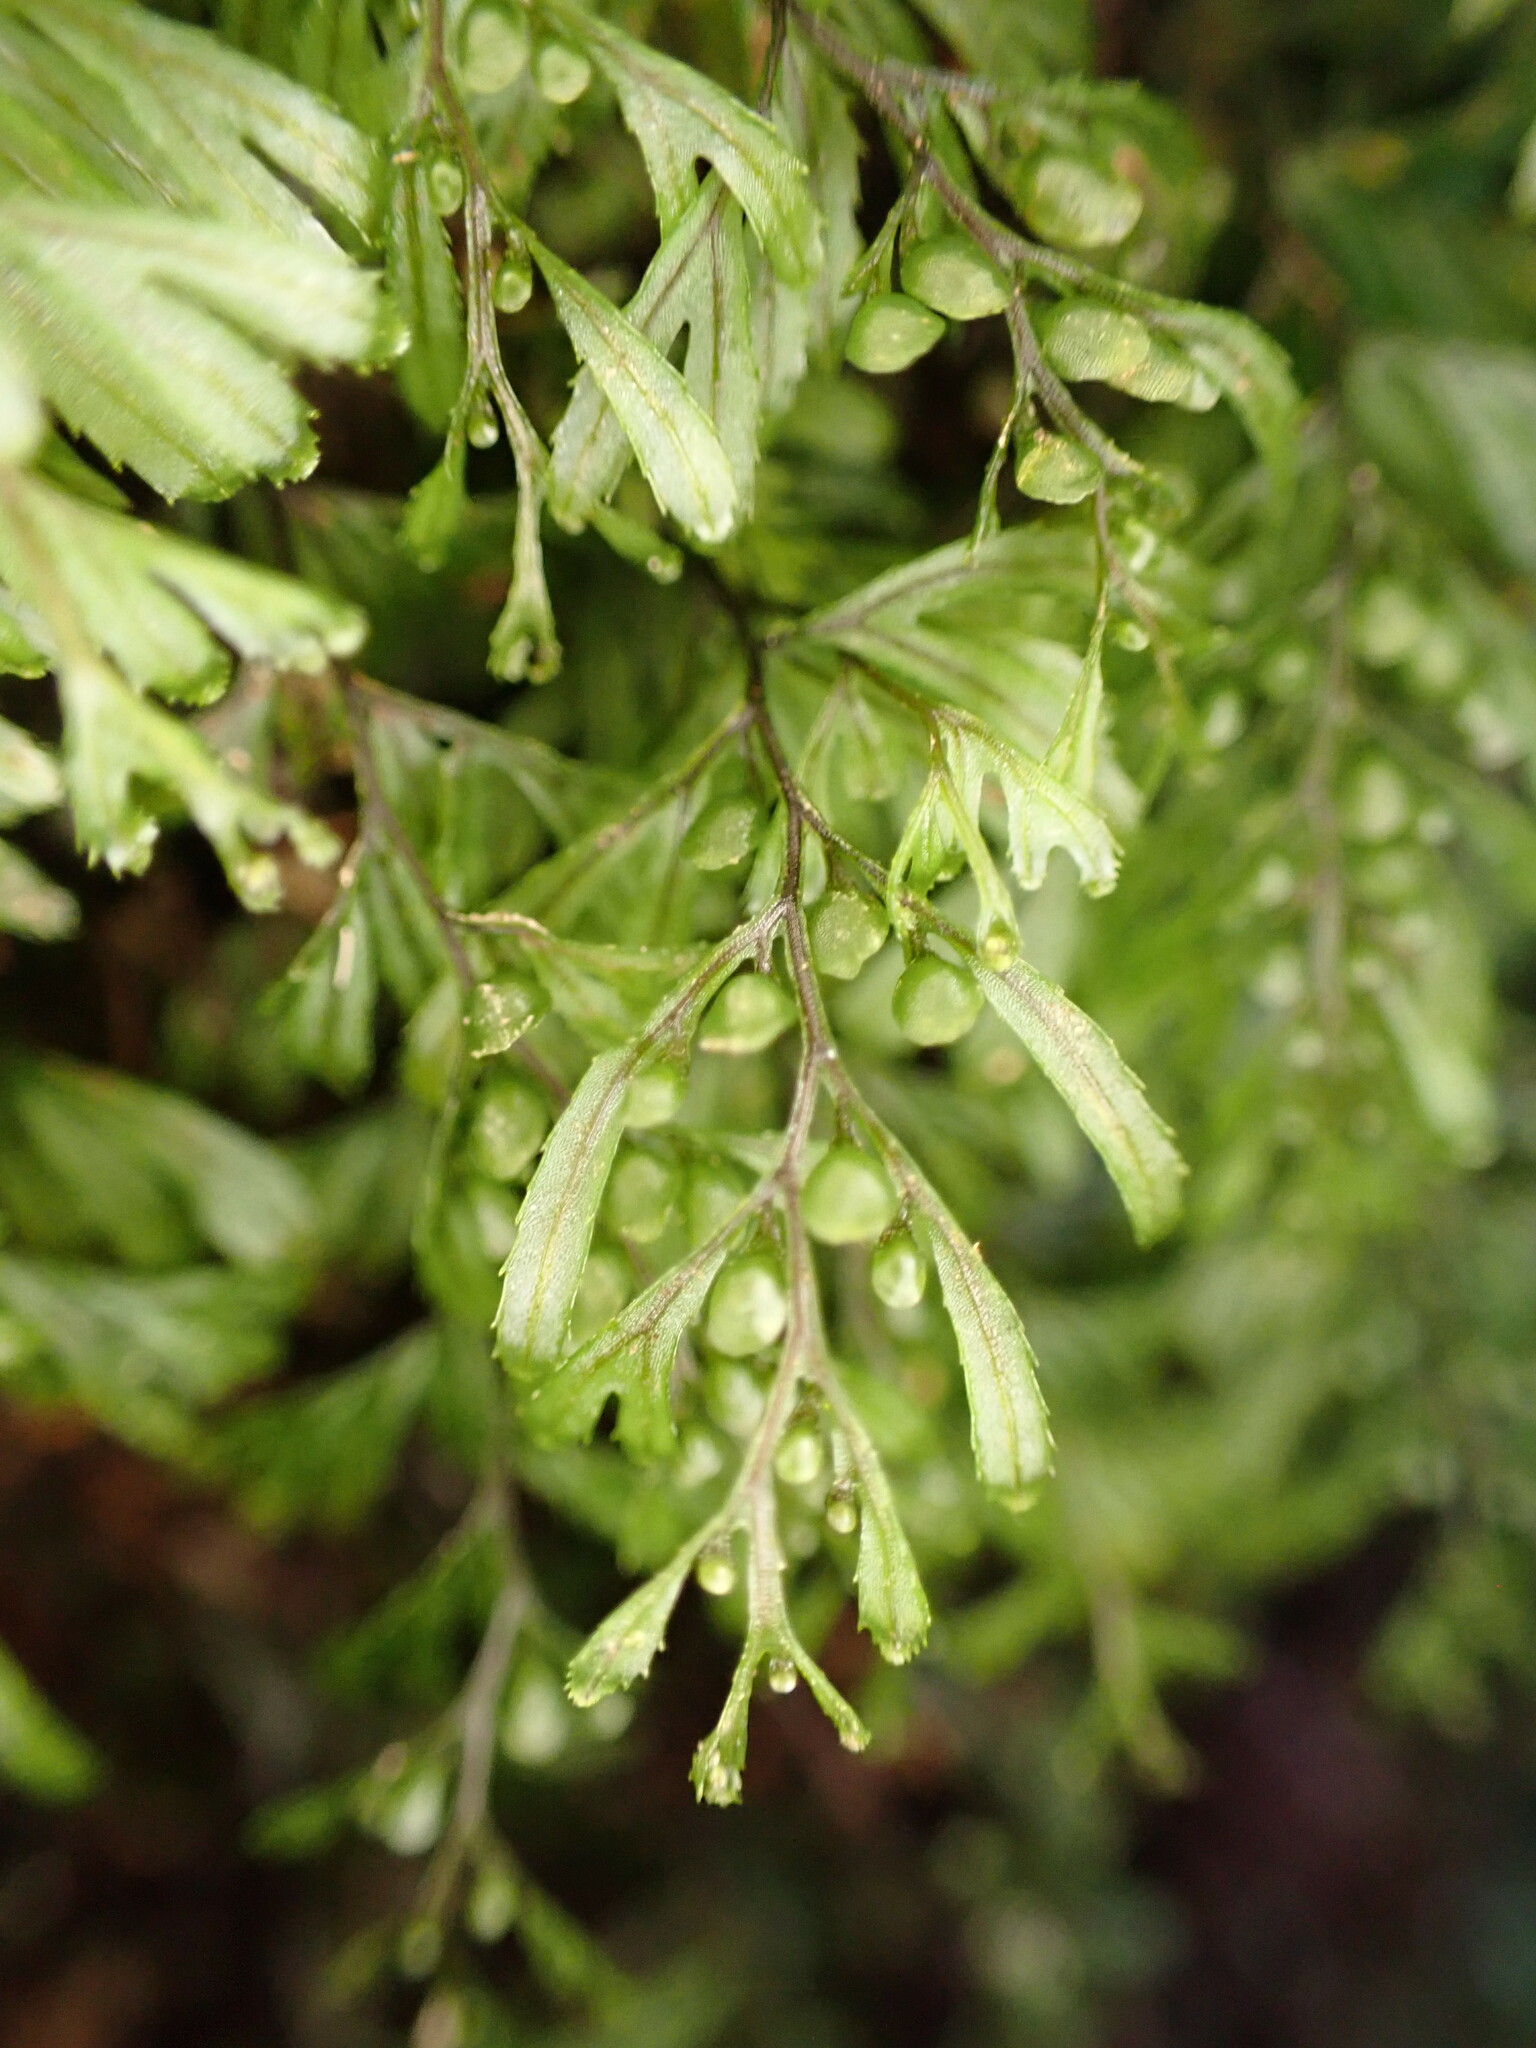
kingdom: Plantae
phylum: Tracheophyta
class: Polypodiopsida
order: Hymenophyllales
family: Hymenophyllaceae
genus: Hymenophyllum
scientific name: Hymenophyllum peltatum
